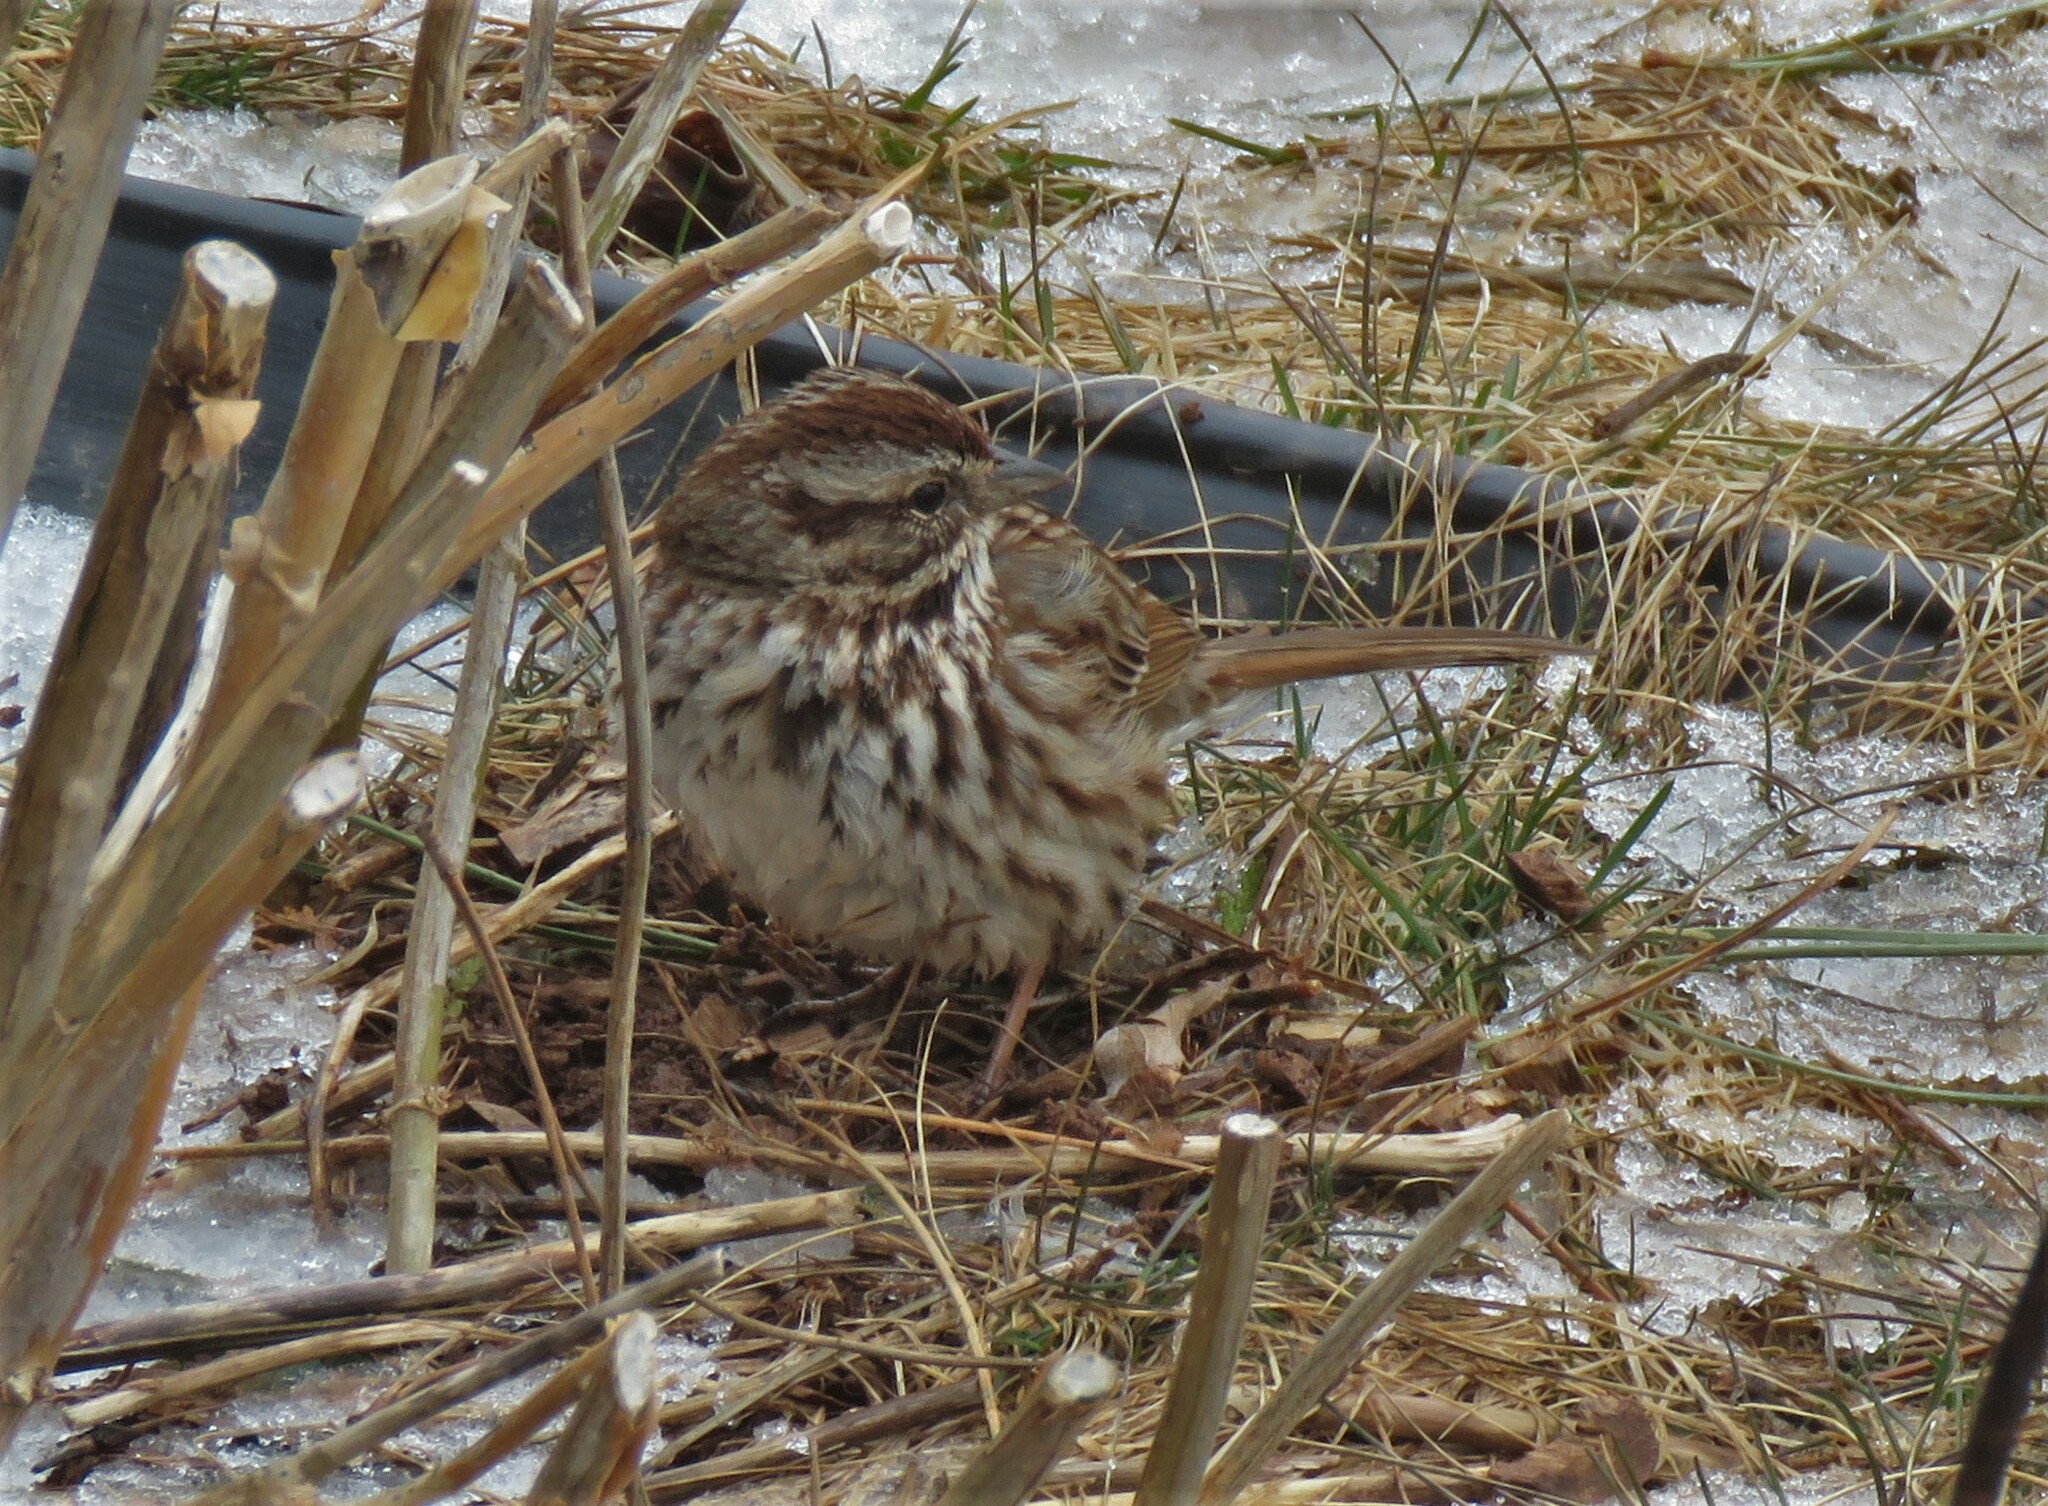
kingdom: Animalia
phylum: Chordata
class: Aves
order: Passeriformes
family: Passerellidae
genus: Melospiza
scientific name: Melospiza melodia
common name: Song sparrow
